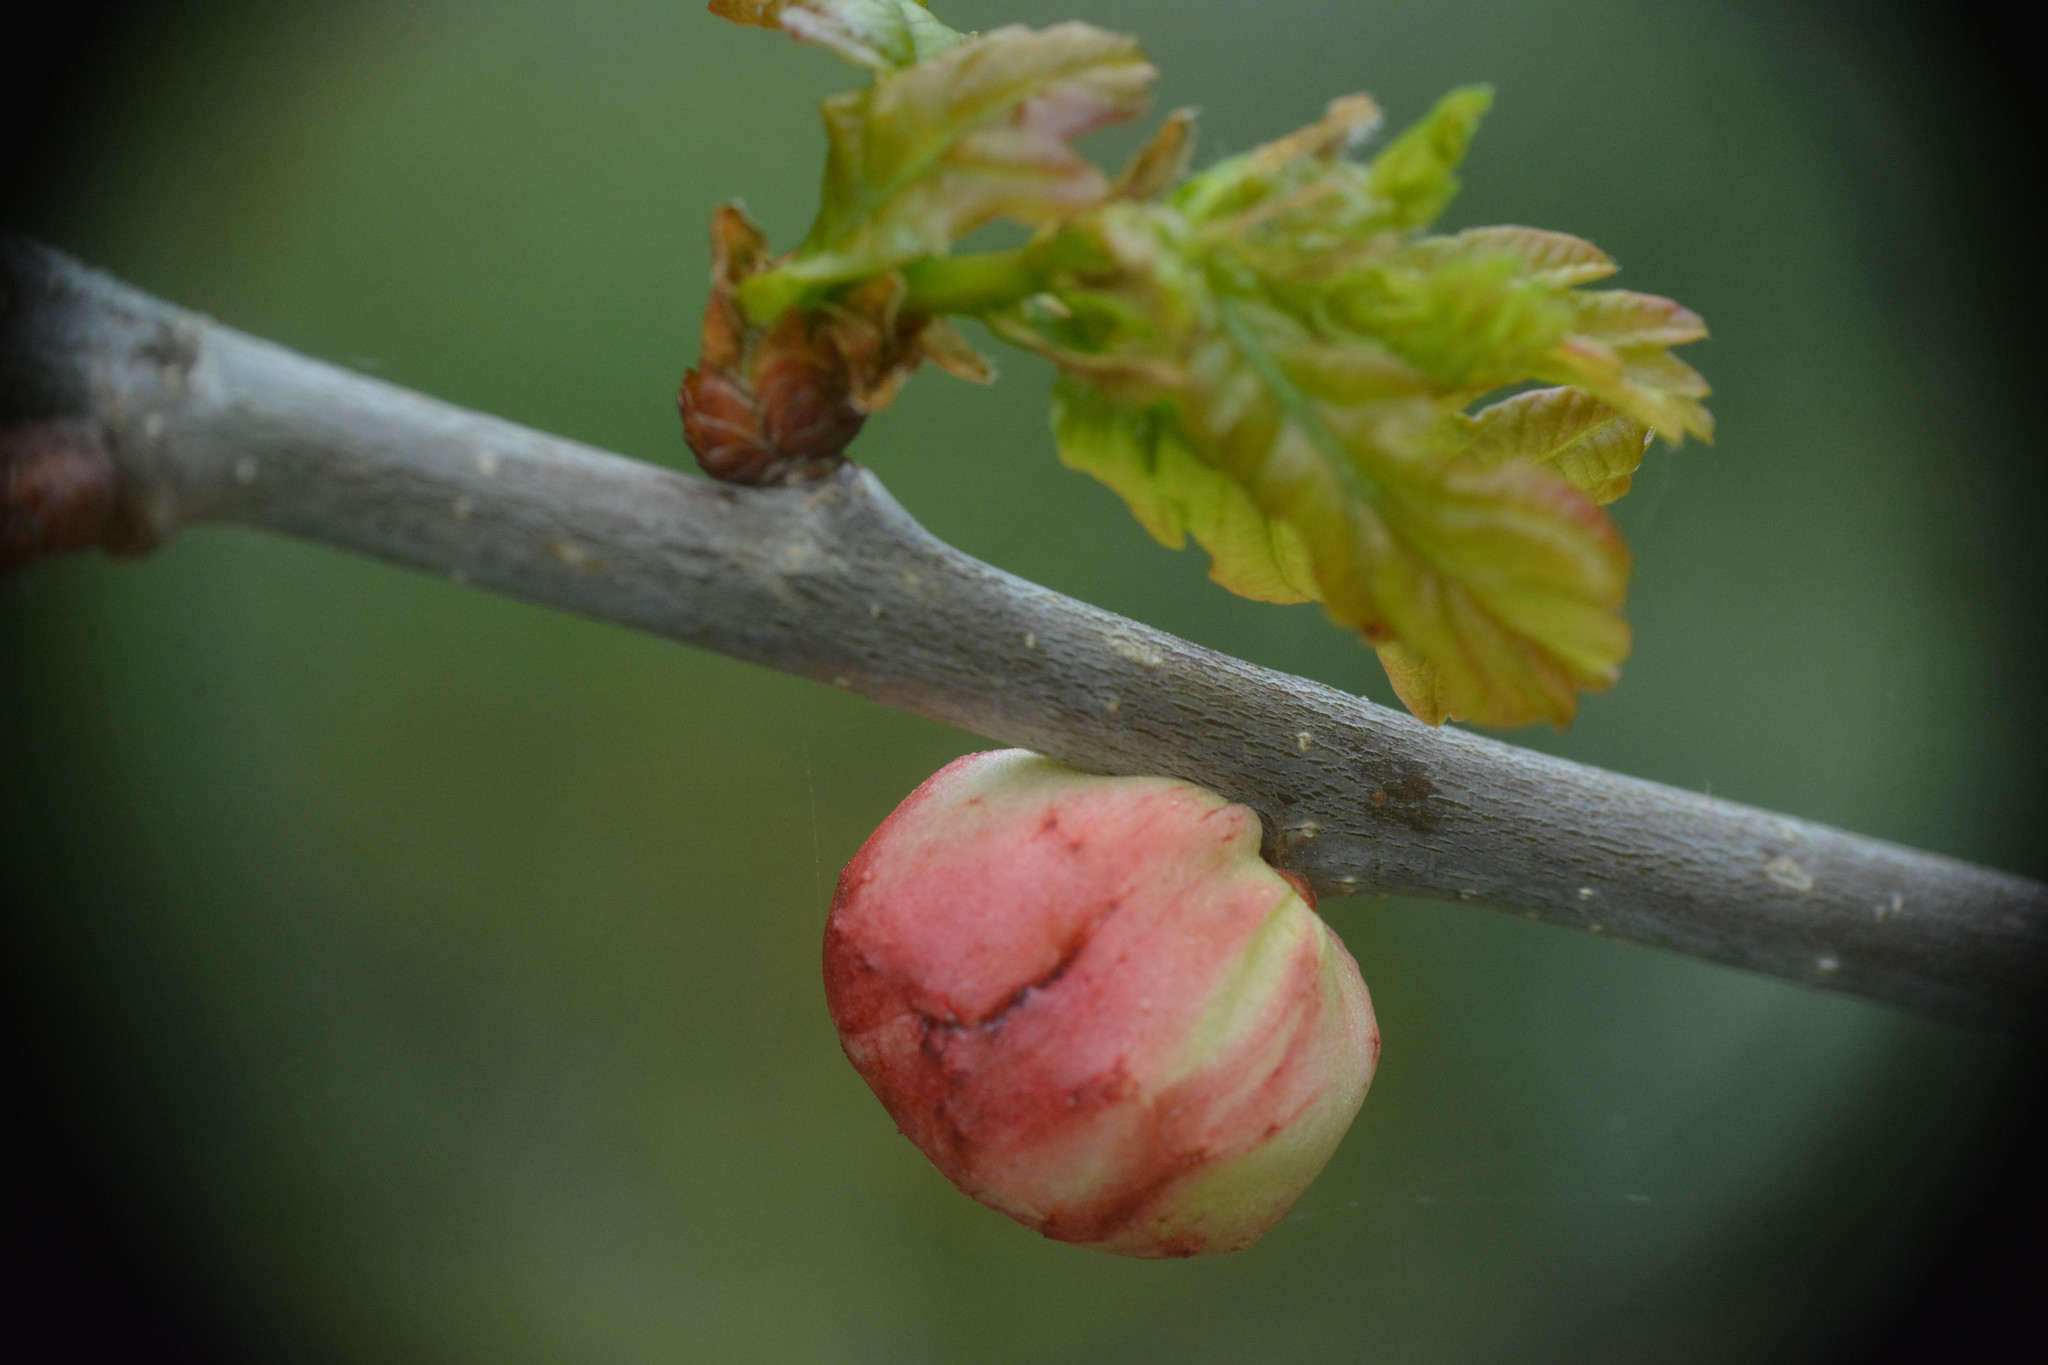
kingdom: Animalia
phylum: Arthropoda
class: Insecta
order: Hymenoptera
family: Cynipidae
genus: Biorhiza
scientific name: Biorhiza pallida
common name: Oak apple
